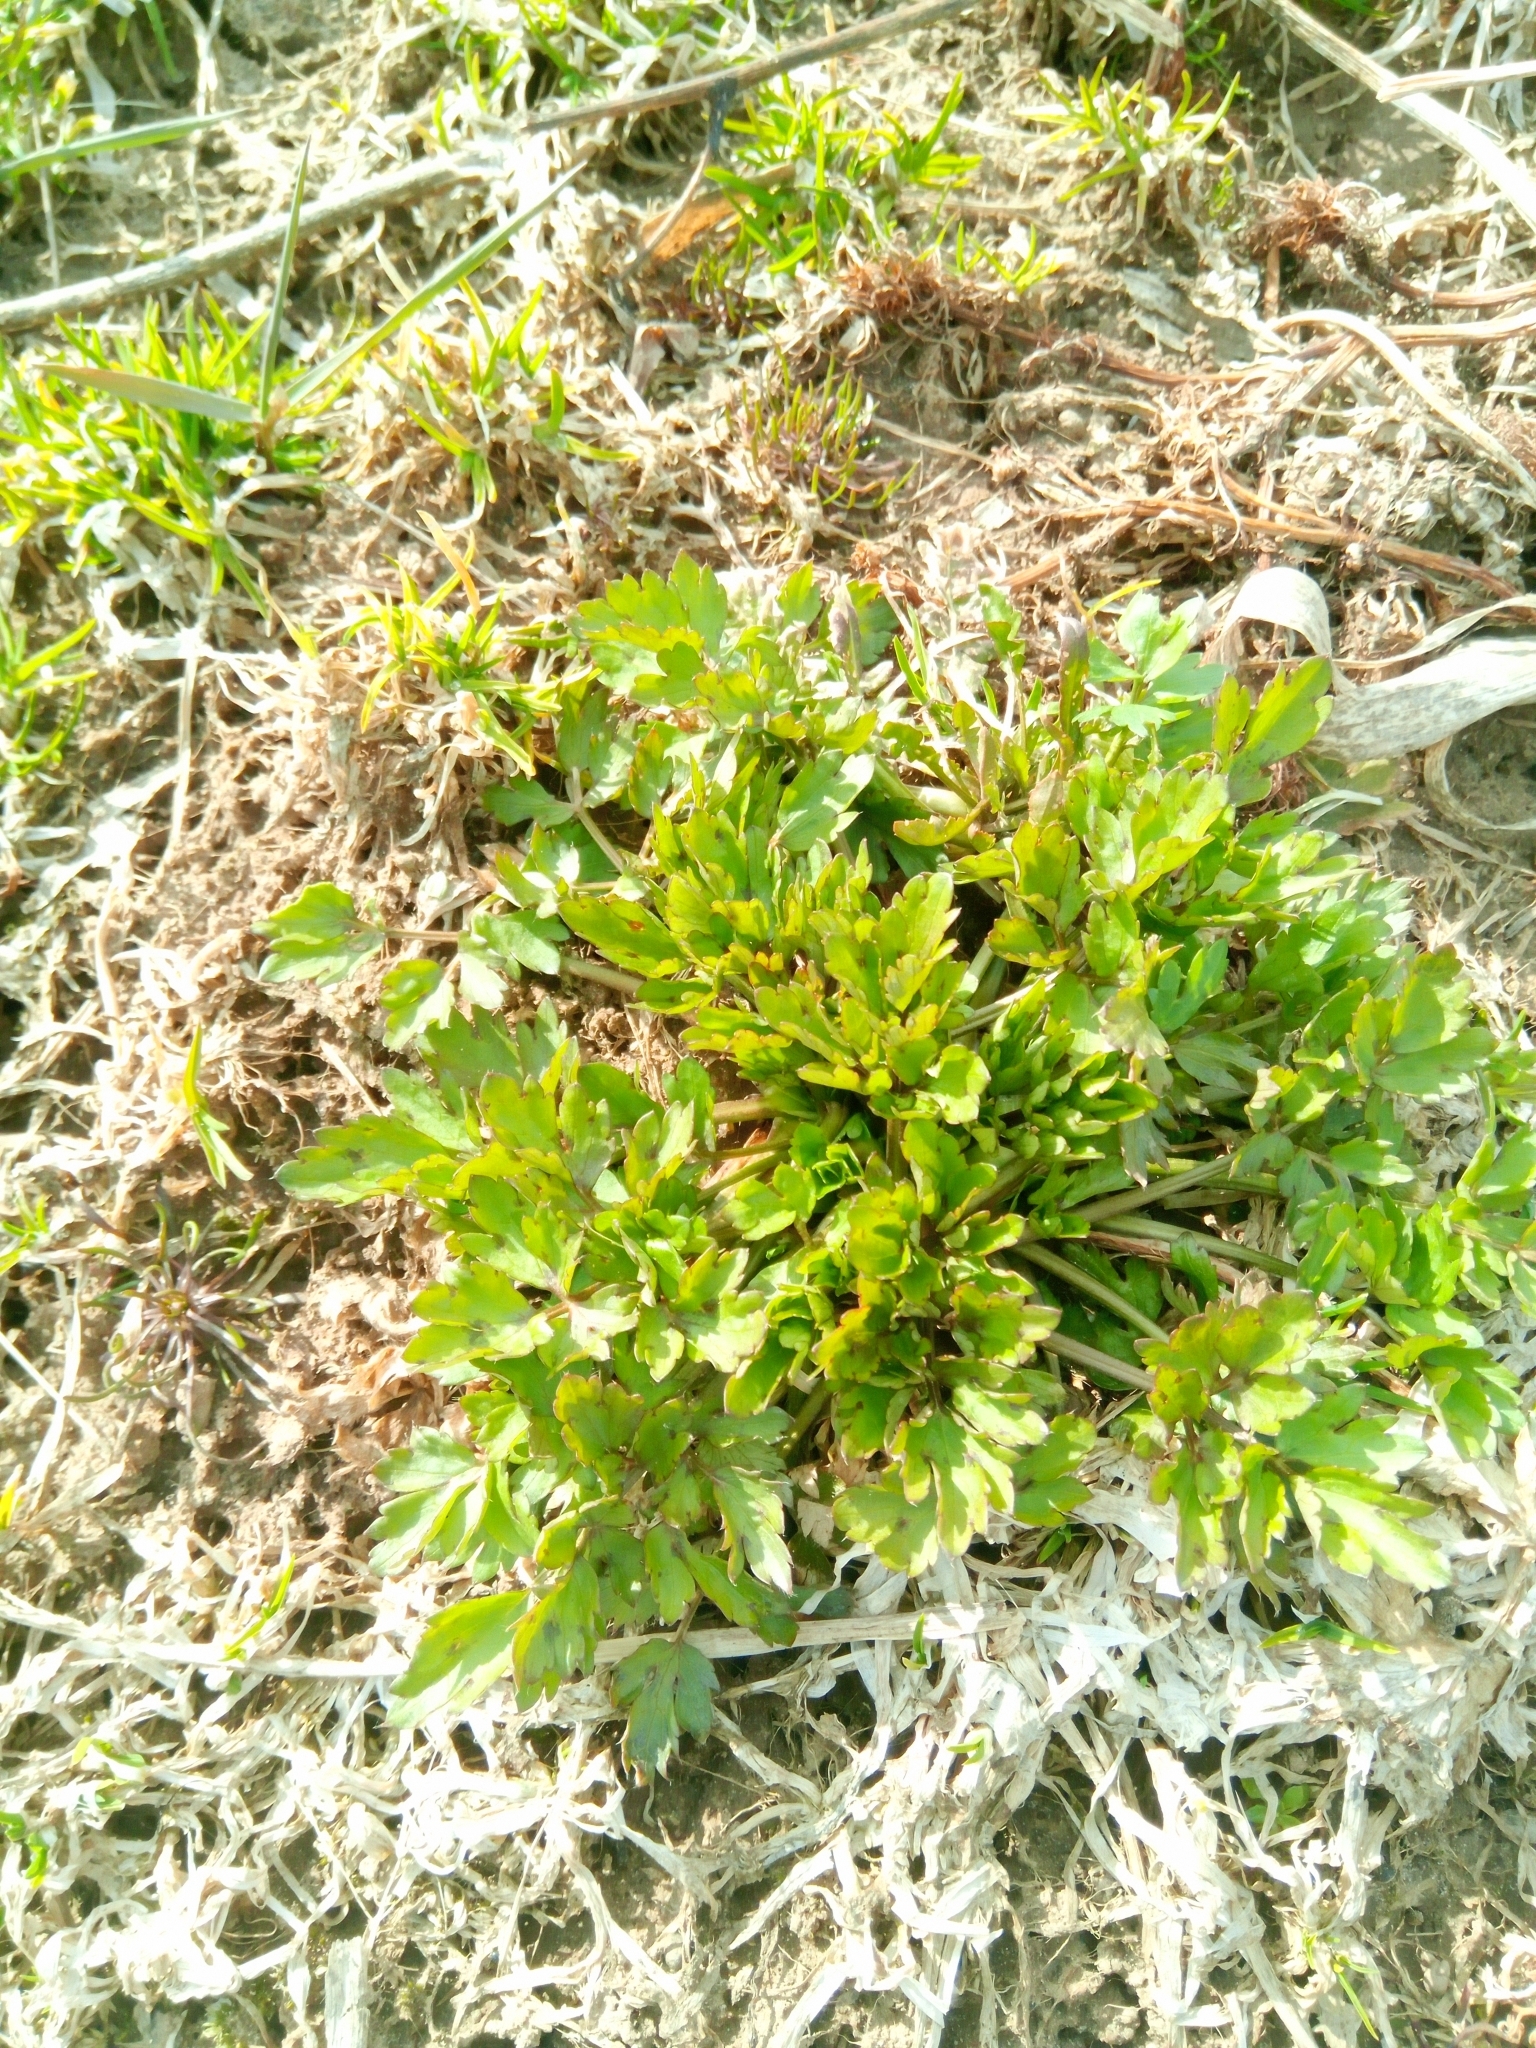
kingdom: Plantae
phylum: Tracheophyta
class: Magnoliopsida
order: Ranunculales
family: Ranunculaceae
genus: Ranunculus
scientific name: Ranunculus repens
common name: Creeping buttercup
